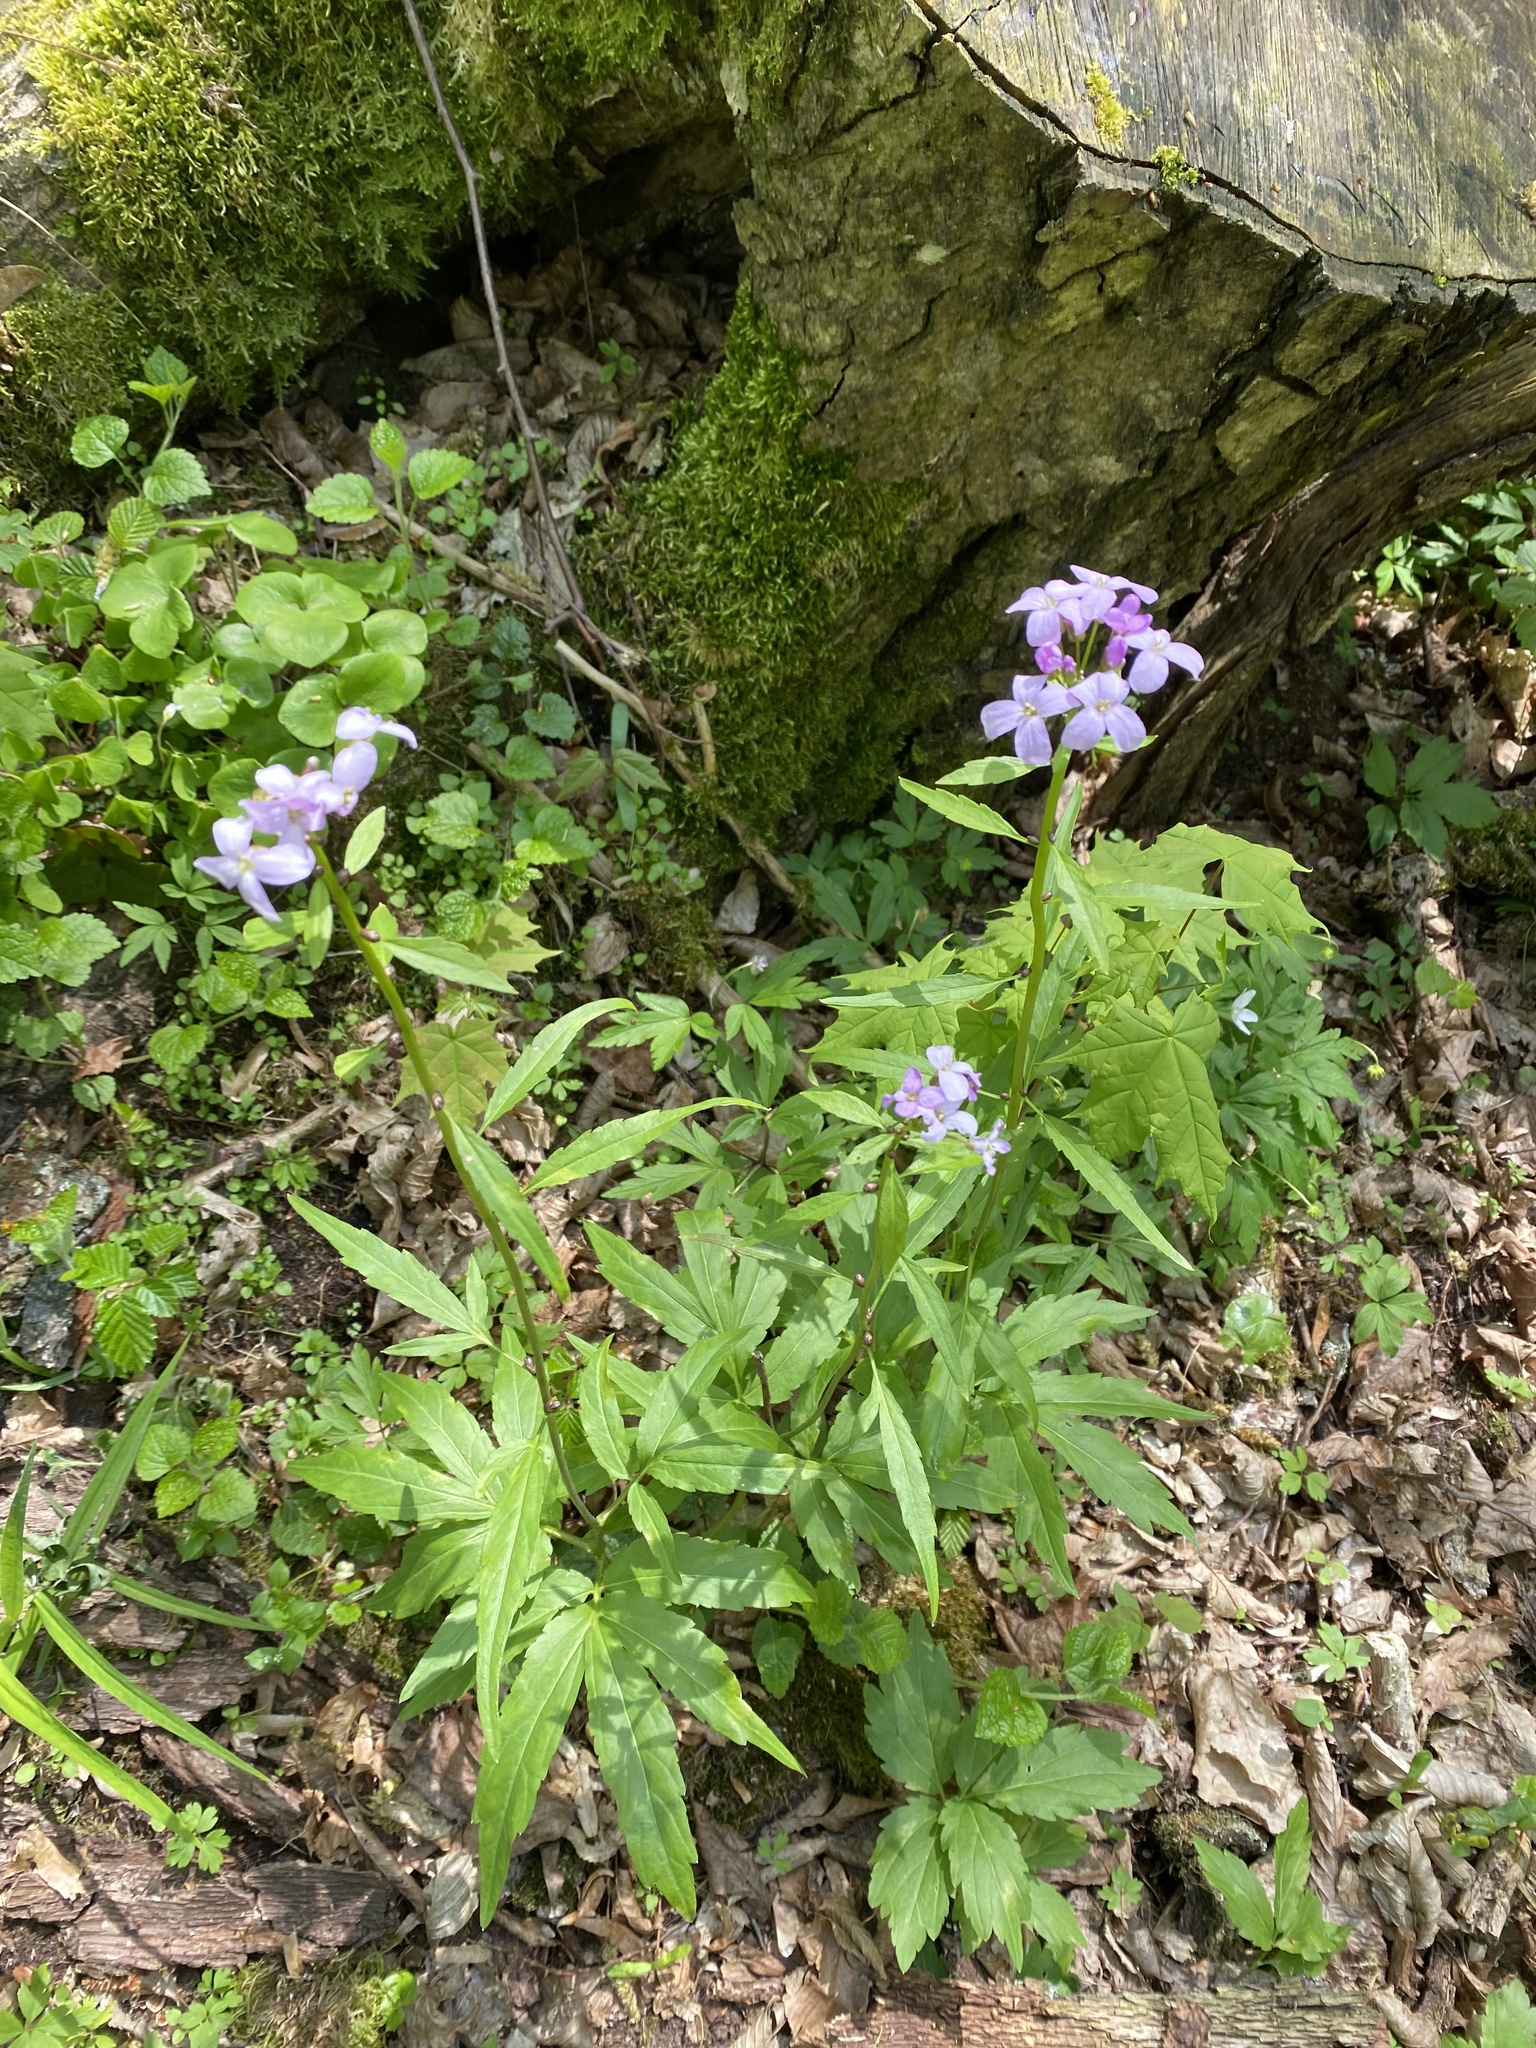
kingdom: Plantae
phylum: Tracheophyta
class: Magnoliopsida
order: Brassicales
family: Brassicaceae
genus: Cardamine
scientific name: Cardamine bulbifera
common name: Coralroot bittercress
